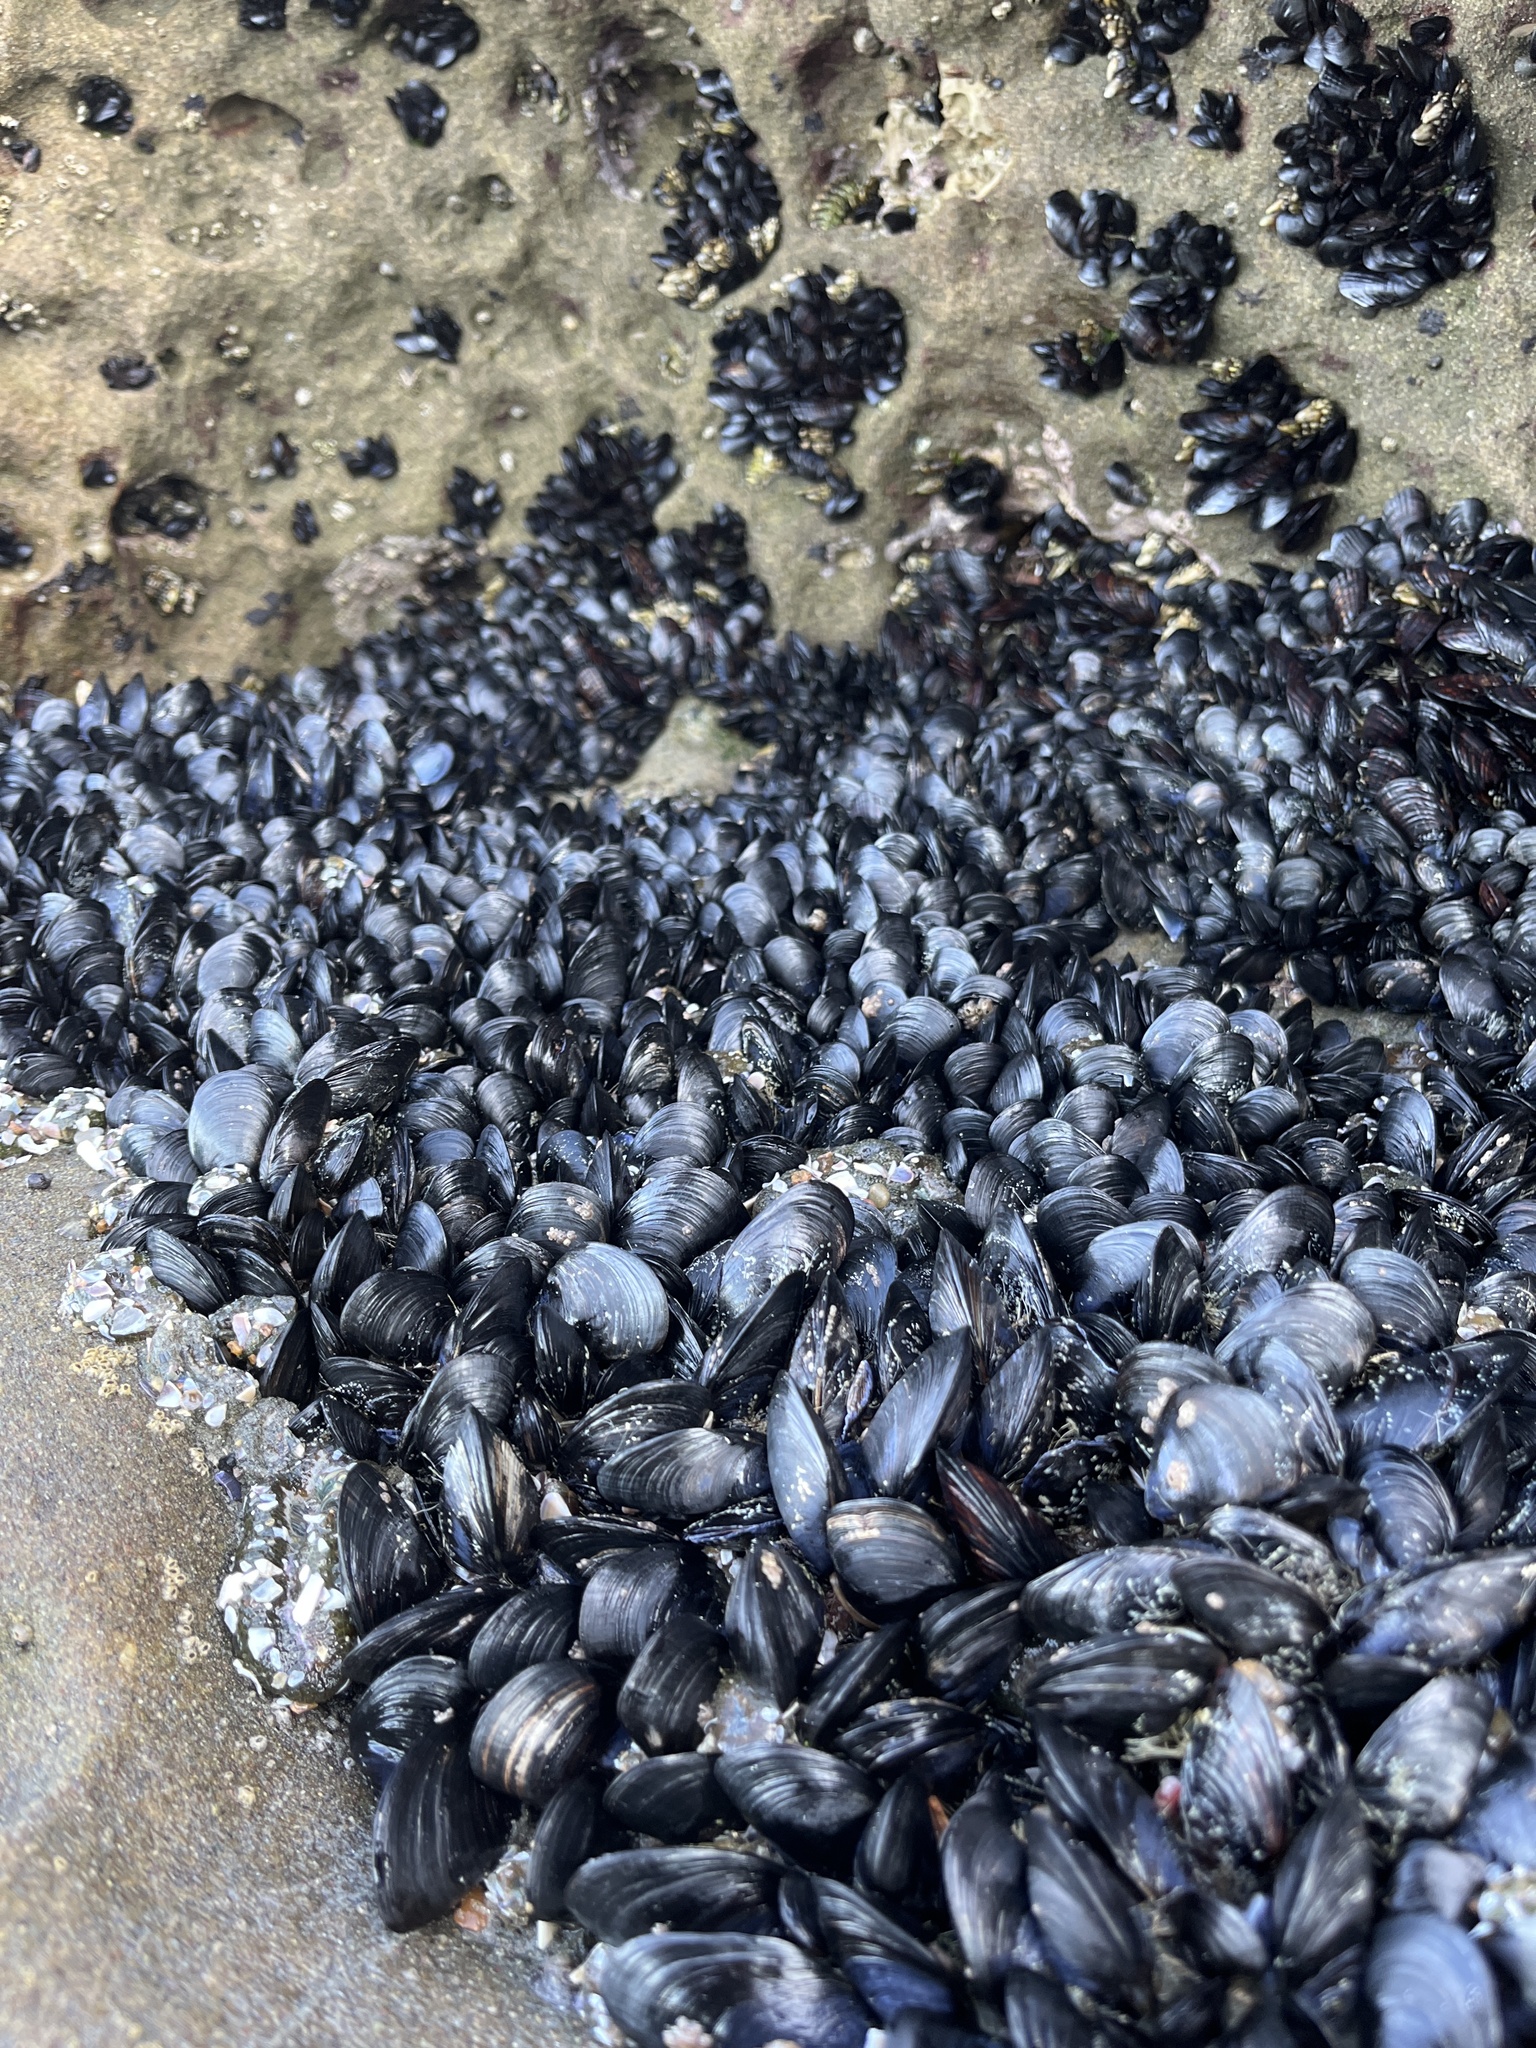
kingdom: Animalia
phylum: Mollusca
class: Bivalvia
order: Mytilida
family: Mytilidae
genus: Mytilus
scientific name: Mytilus californianus
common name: California mussel
